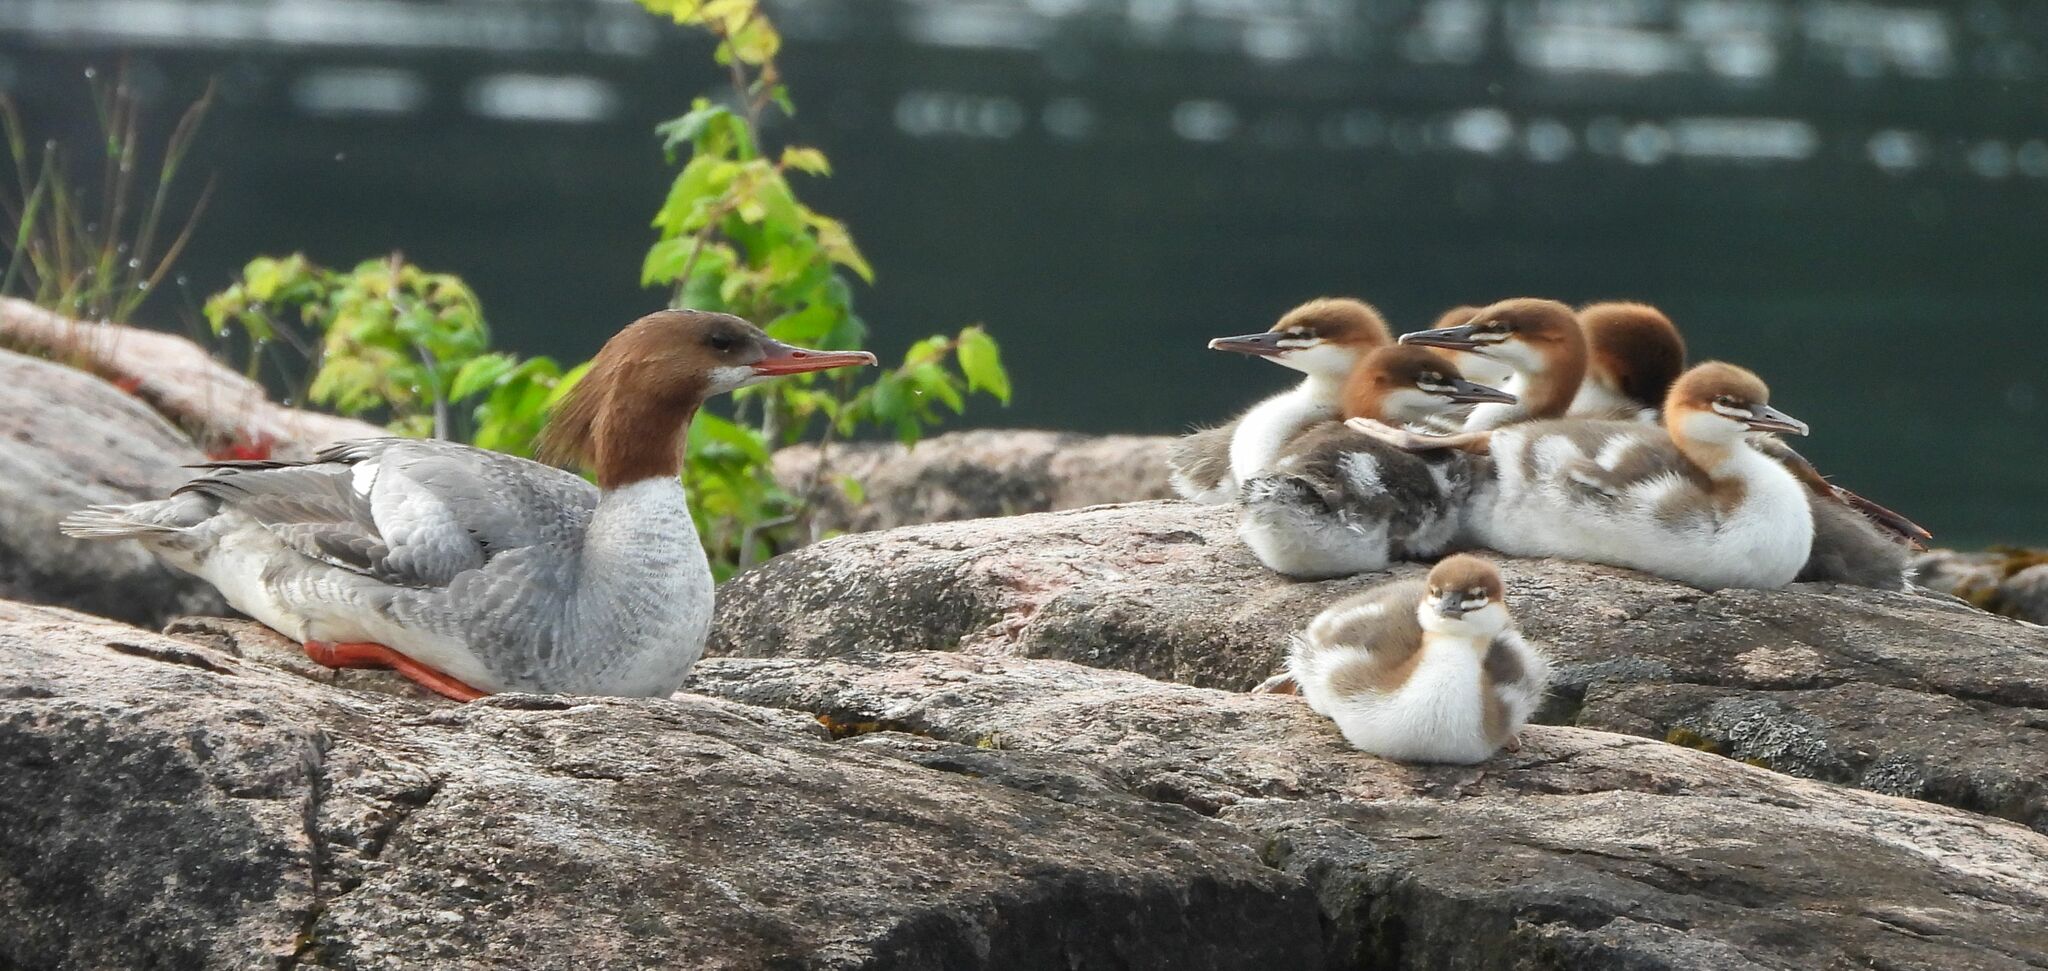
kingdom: Animalia
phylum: Chordata
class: Aves
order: Anseriformes
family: Anatidae
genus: Mergus
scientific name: Mergus merganser
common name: Common merganser
